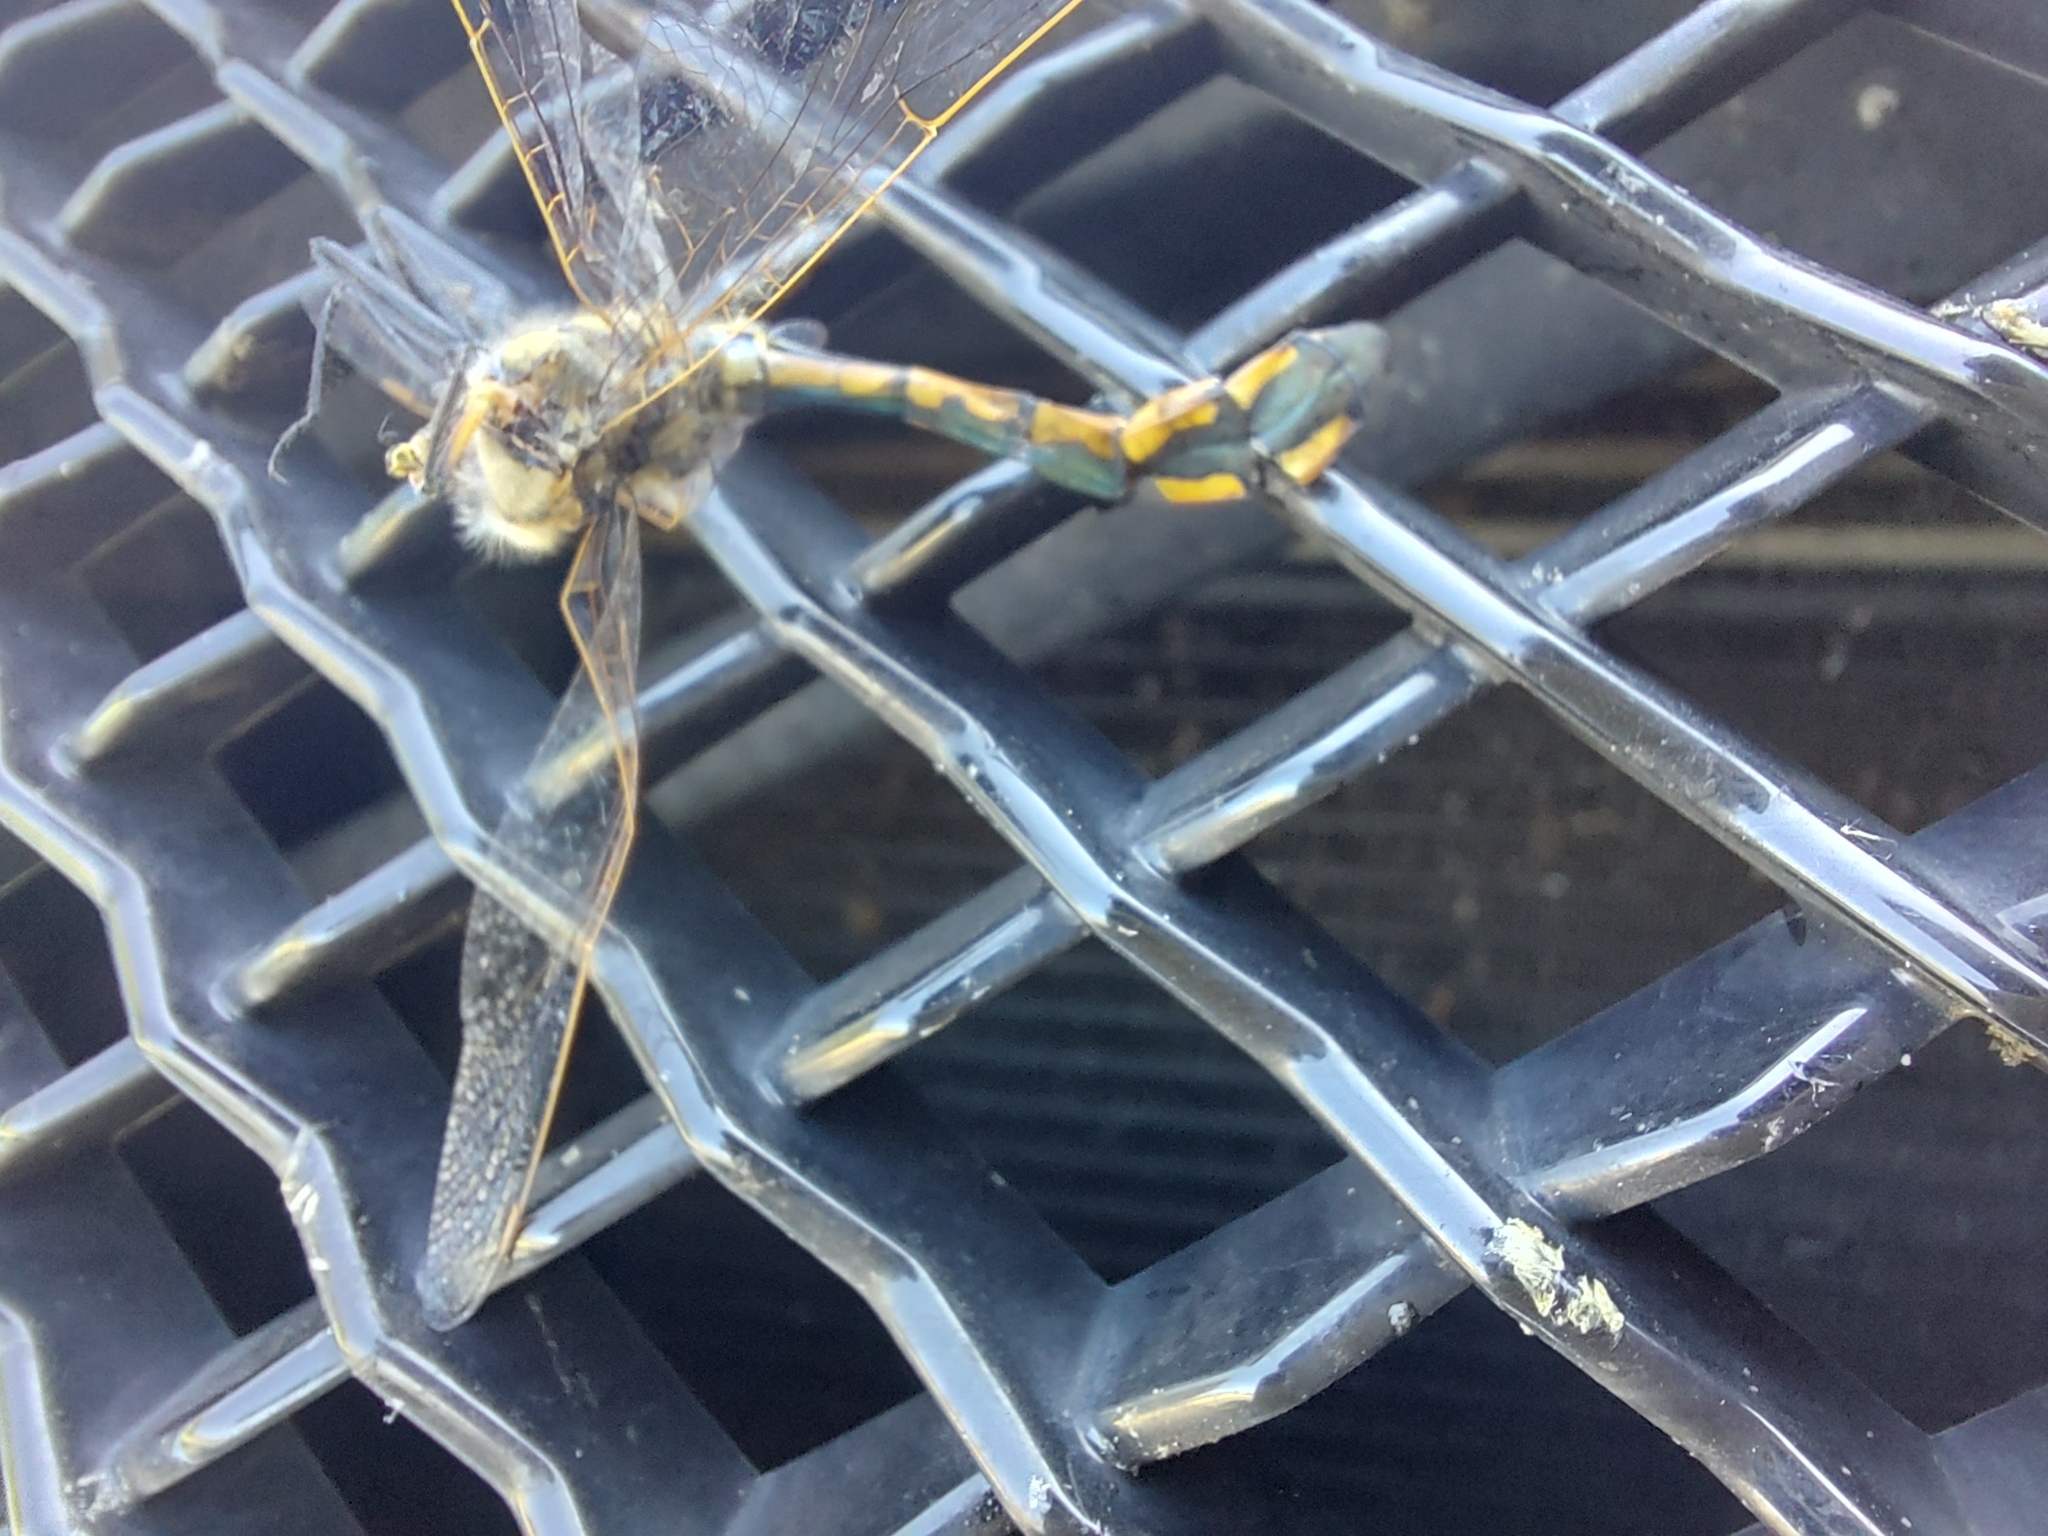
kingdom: Animalia
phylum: Arthropoda
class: Insecta
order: Odonata
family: Corduliidae
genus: Hemicordulia
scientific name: Hemicordulia tau
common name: Tau emerald
